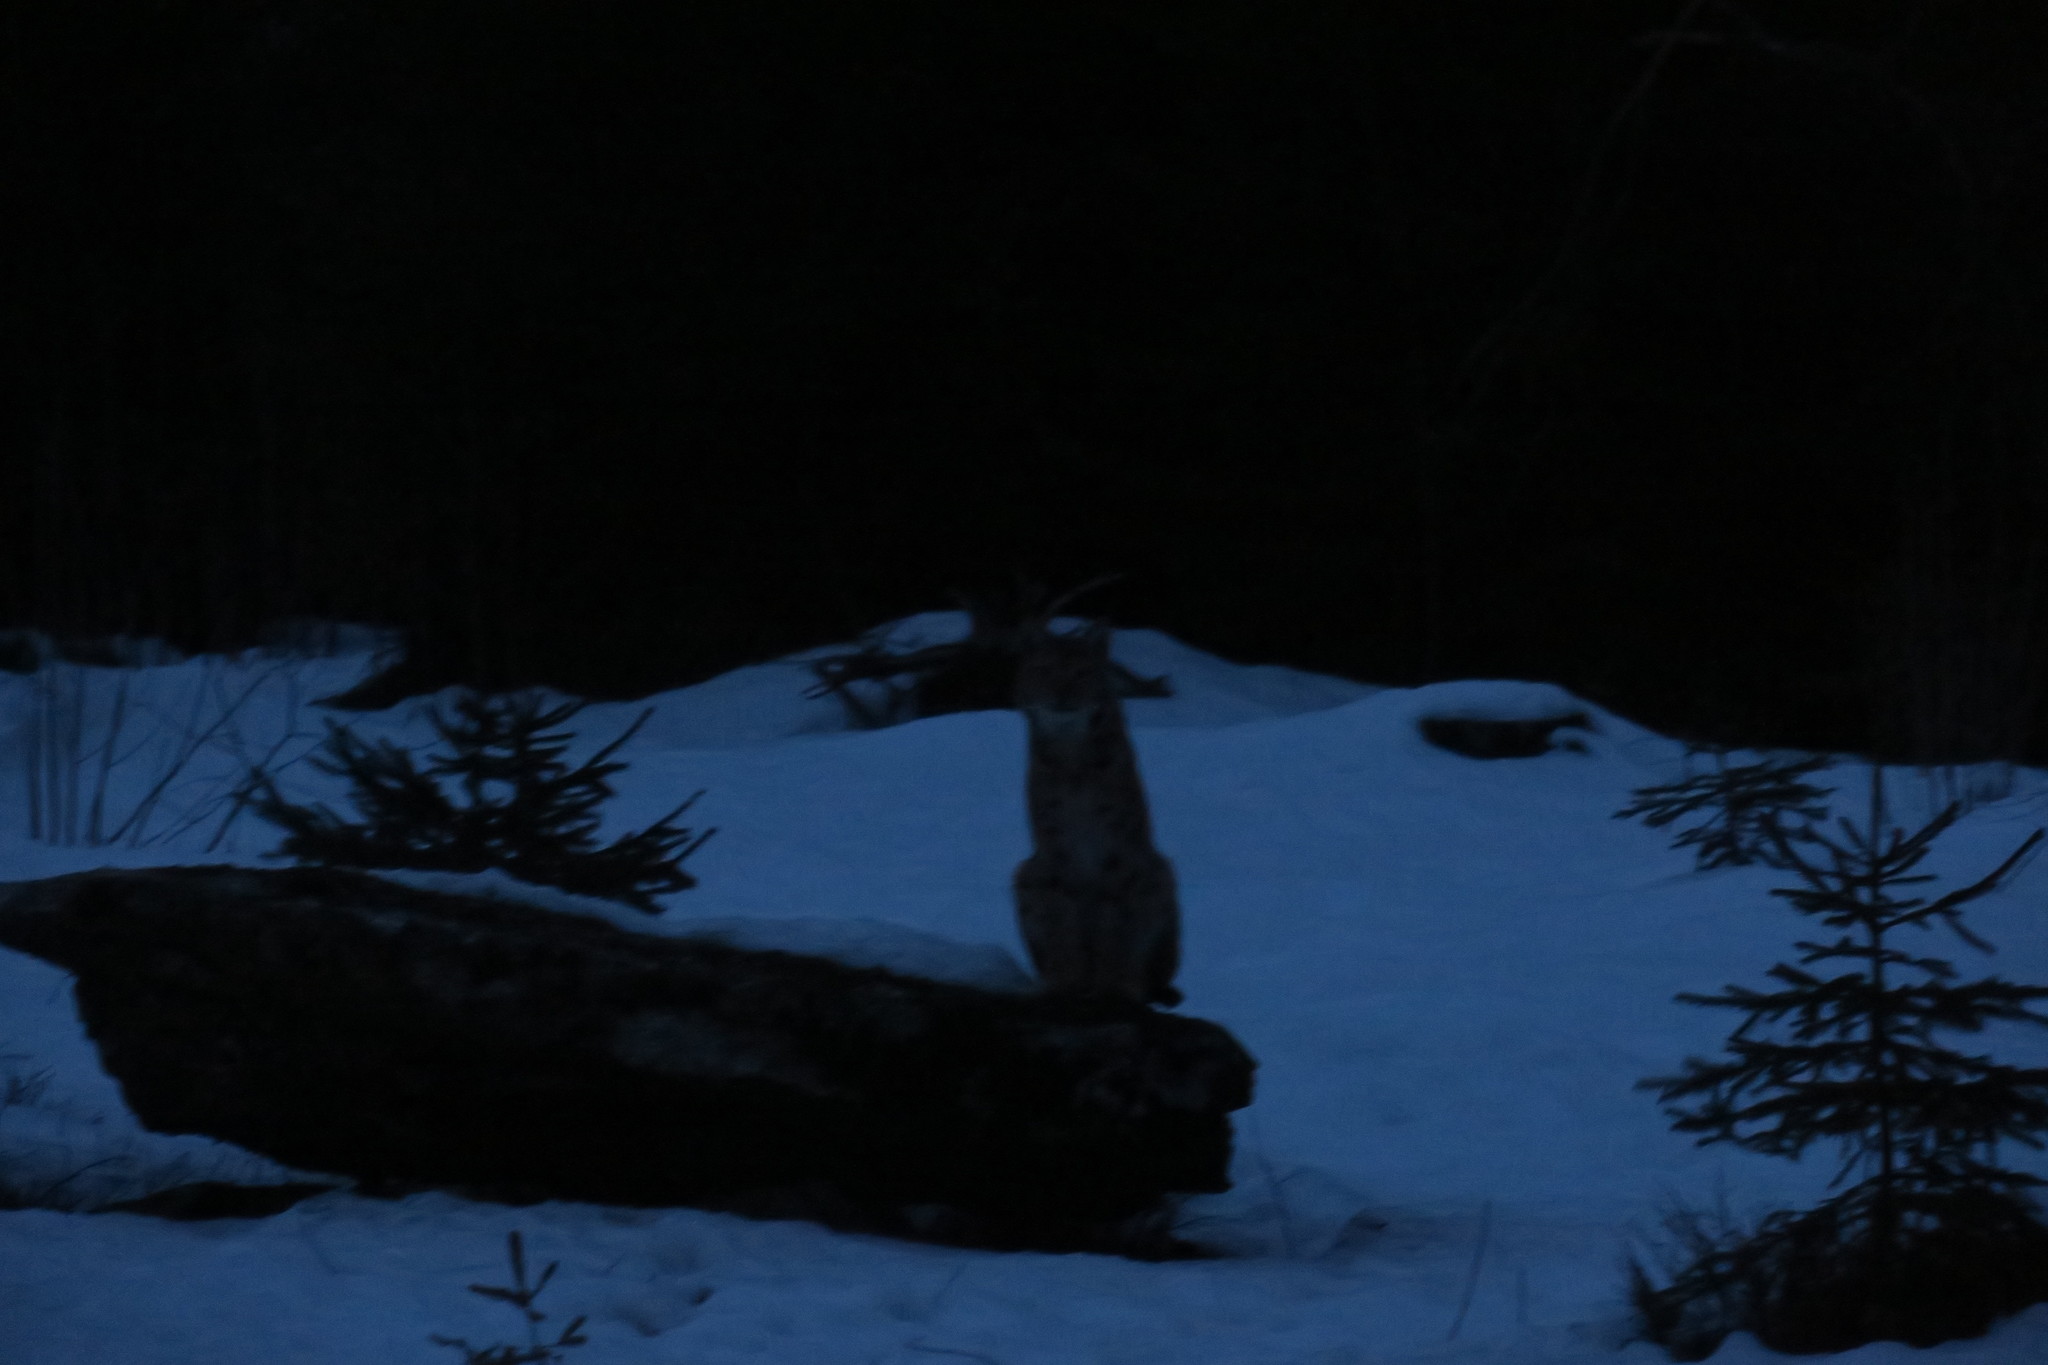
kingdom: Animalia
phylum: Chordata
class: Mammalia
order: Carnivora
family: Felidae
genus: Lynx
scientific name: Lynx lynx
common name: Eurasian lynx
